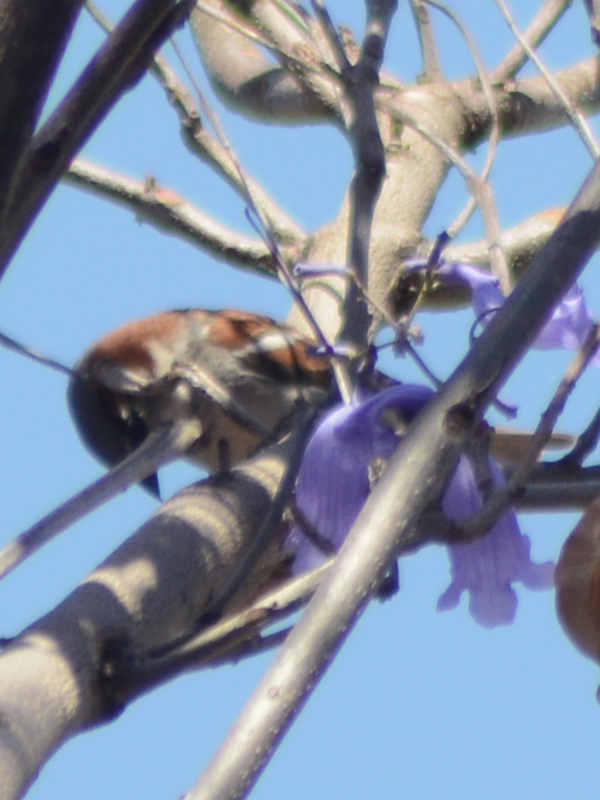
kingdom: Animalia
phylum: Chordata
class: Aves
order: Passeriformes
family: Passeridae
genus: Passer
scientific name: Passer domesticus
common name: House sparrow
